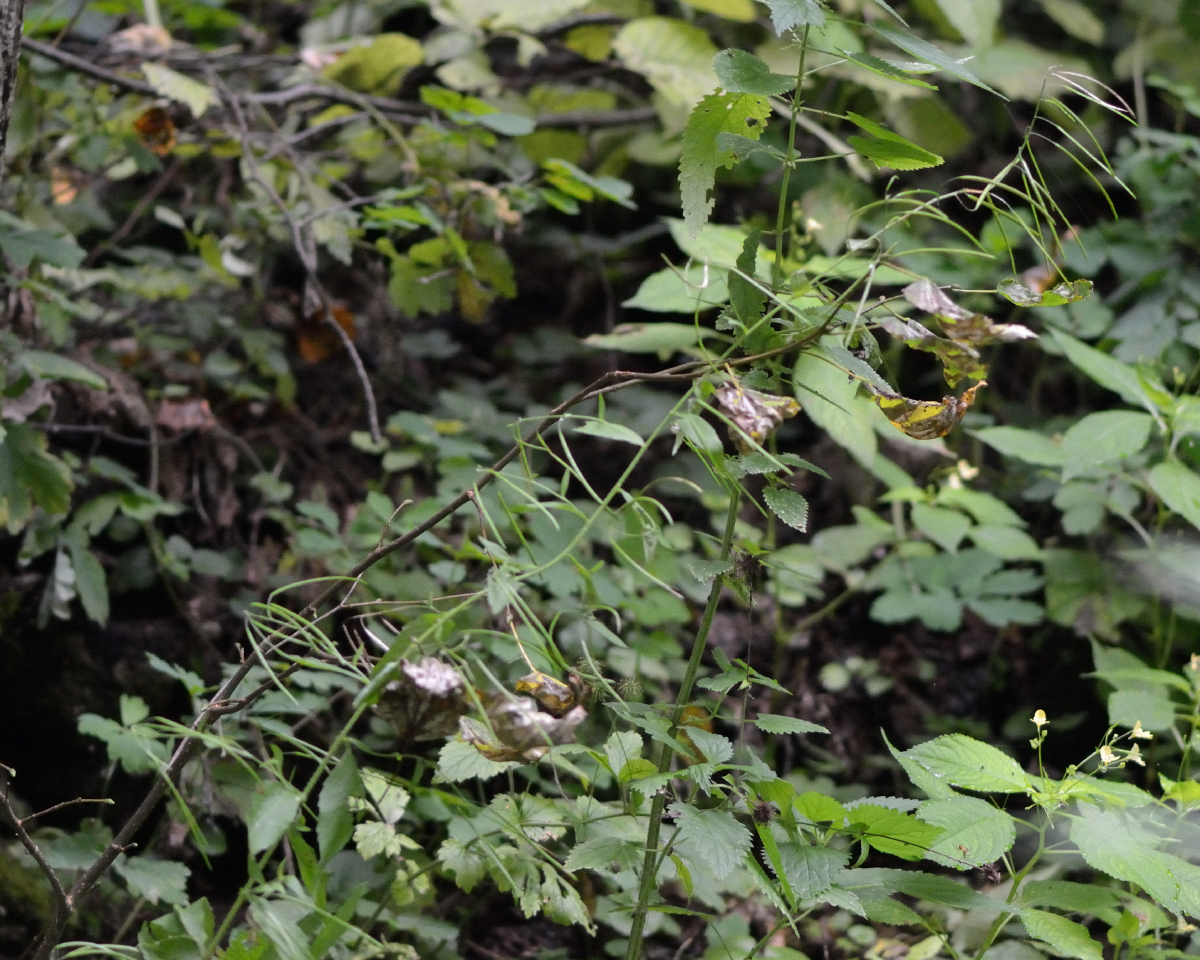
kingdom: Plantae
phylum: Tracheophyta
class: Magnoliopsida
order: Brassicales
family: Brassicaceae
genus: Catolobus
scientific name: Catolobus pendulus
